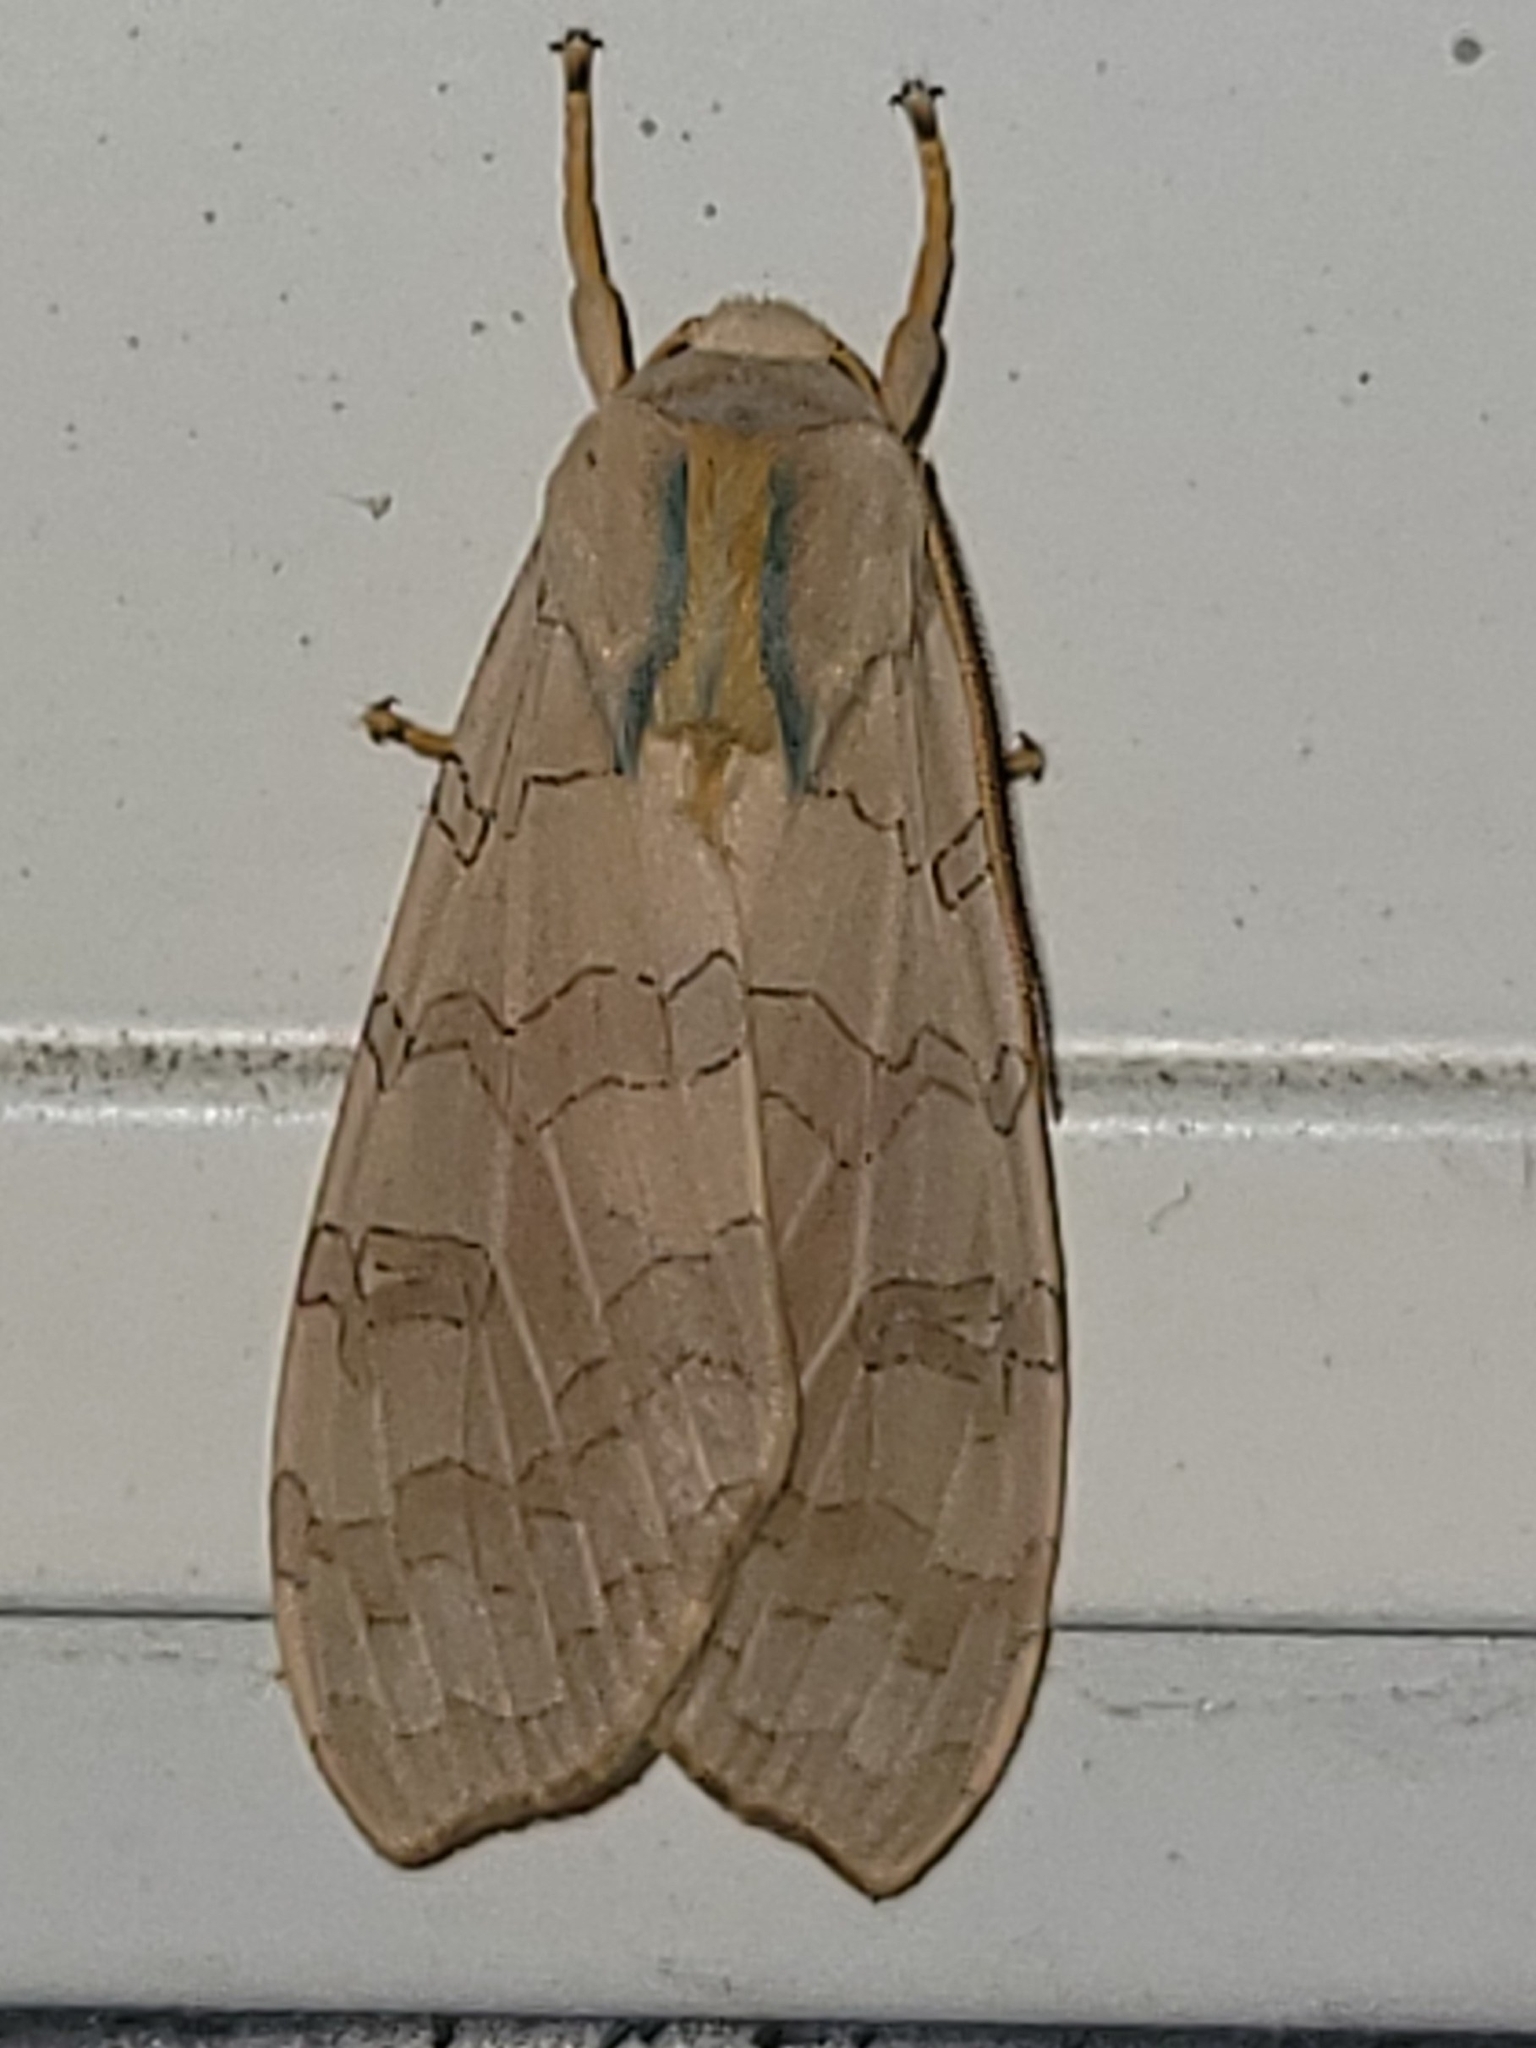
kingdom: Animalia
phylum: Arthropoda
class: Insecta
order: Lepidoptera
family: Erebidae
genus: Halysidota
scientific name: Halysidota tessellaris
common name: Banded tussock moth
